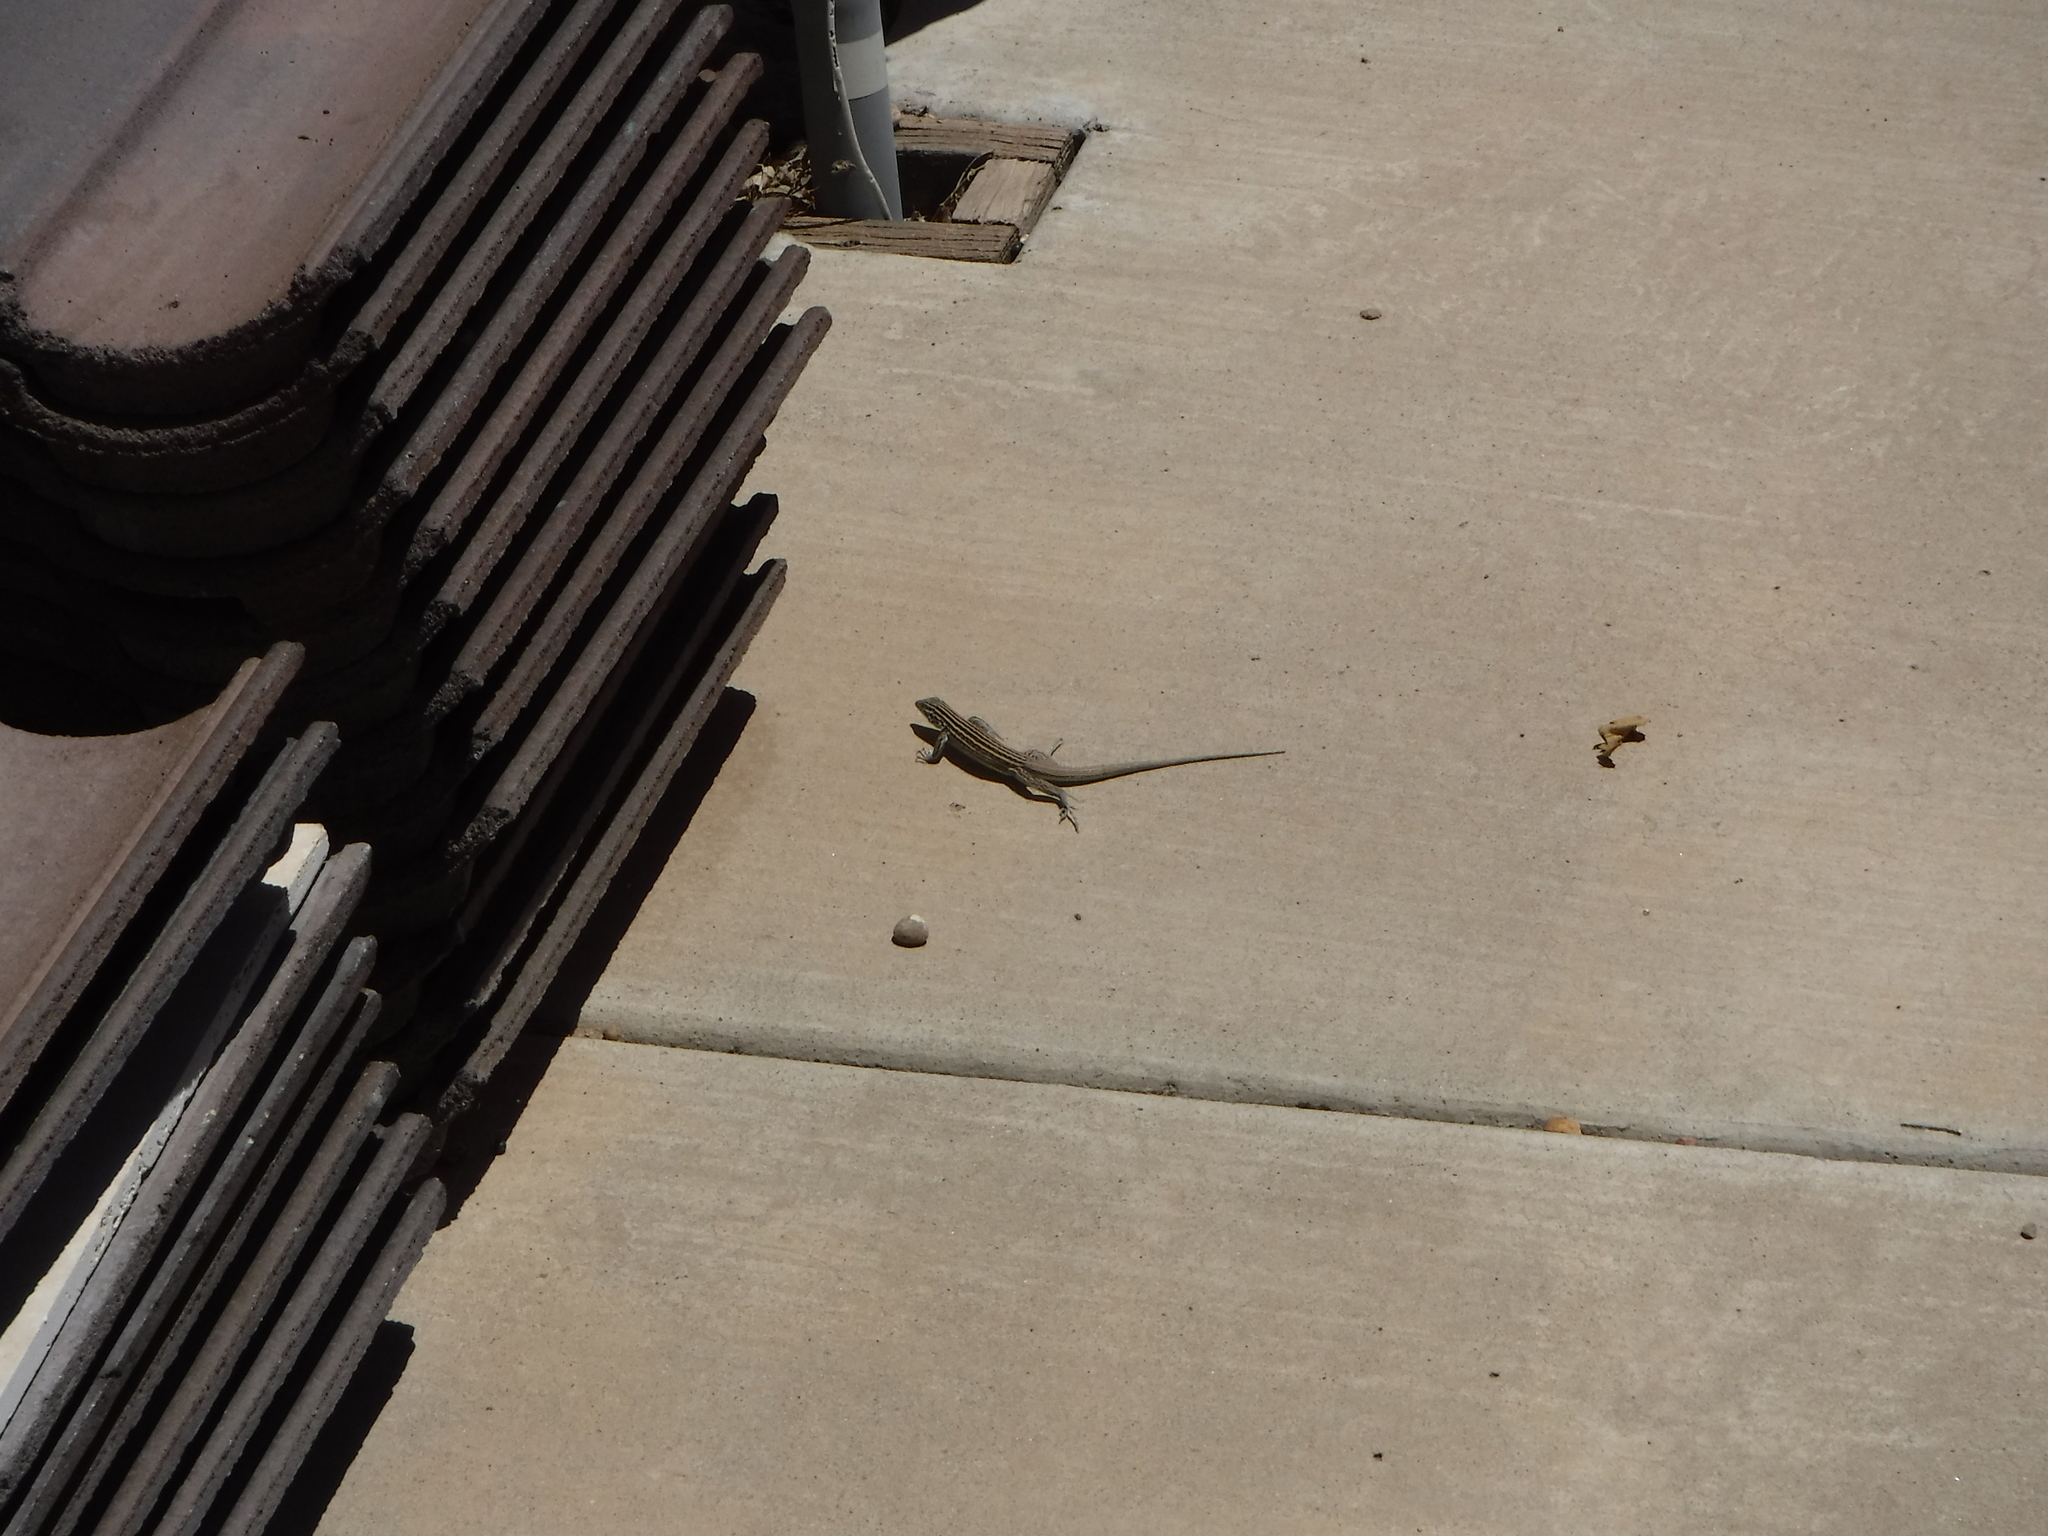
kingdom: Animalia
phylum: Chordata
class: Squamata
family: Teiidae
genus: Aspidoscelis
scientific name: Aspidoscelis neomexicanus
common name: New mexico whiptail
